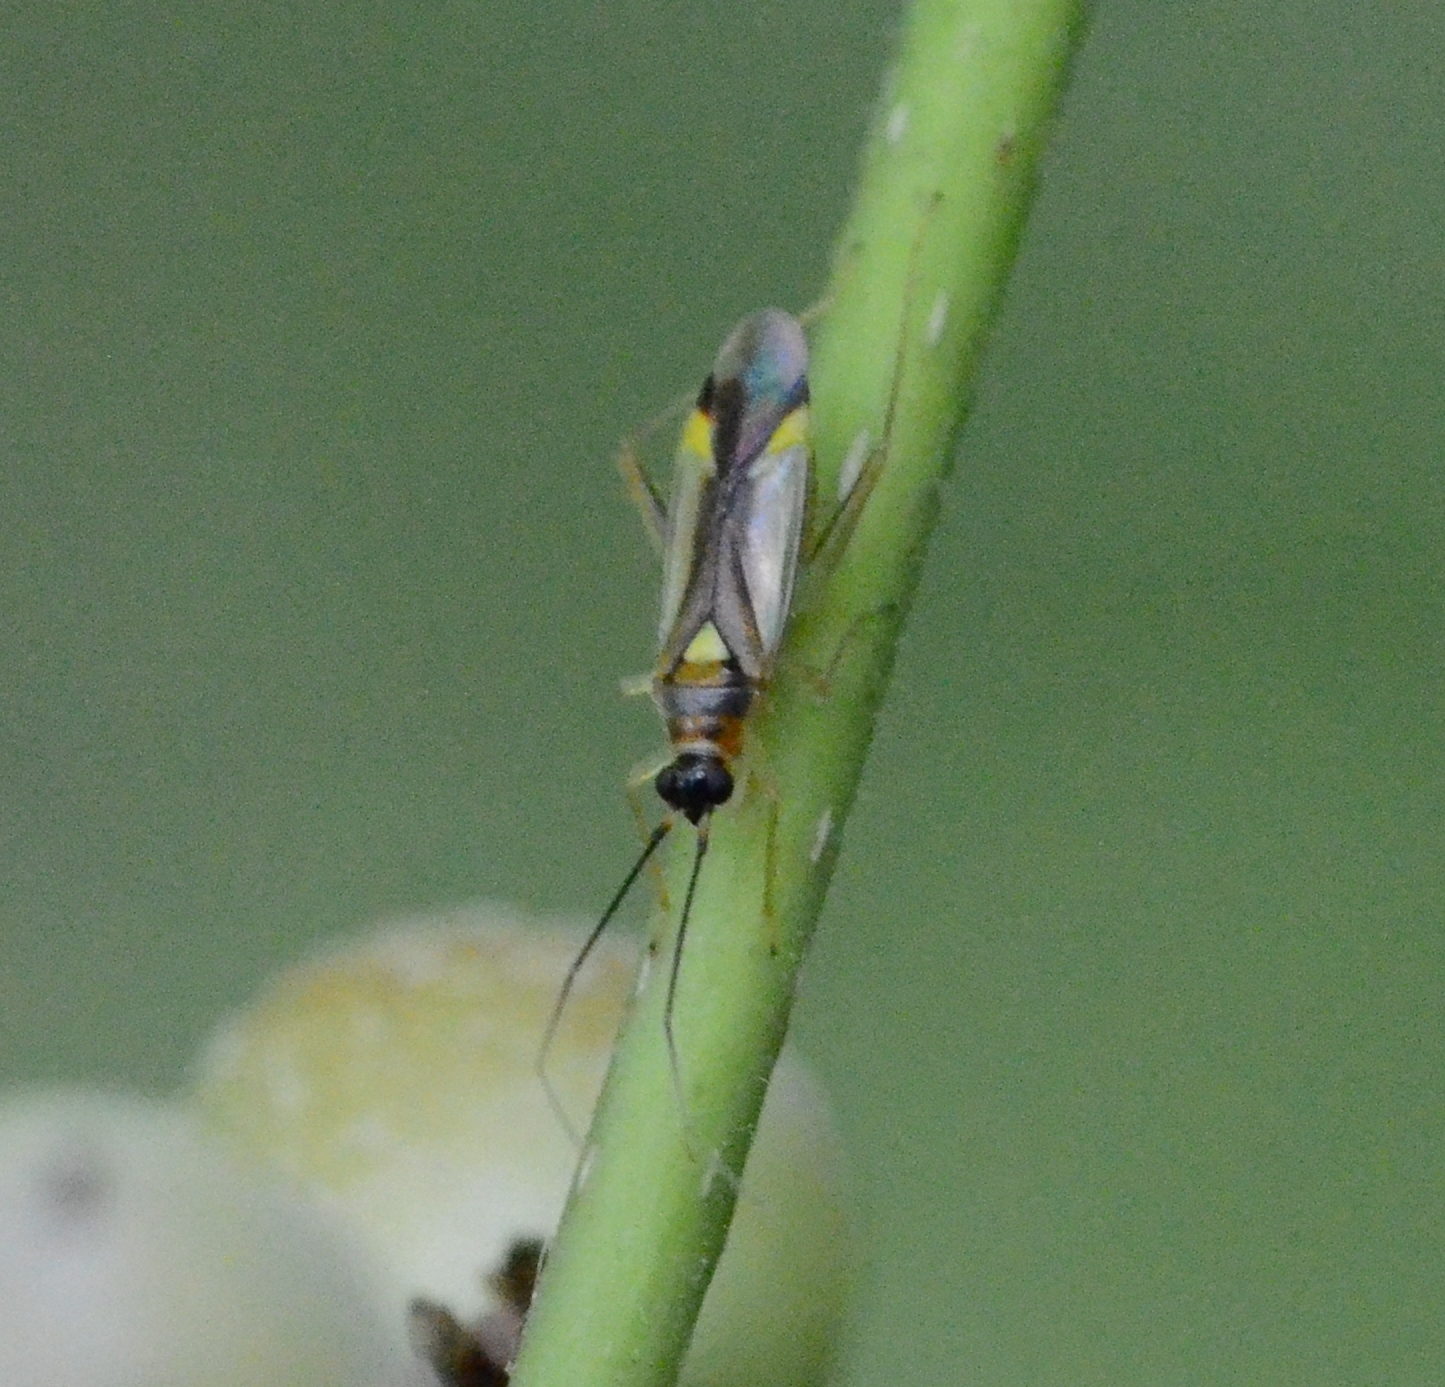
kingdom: Animalia
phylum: Arthropoda
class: Insecta
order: Hemiptera
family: Miridae
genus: Campyloneura
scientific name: Campyloneura virgula
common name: Predatory bug
